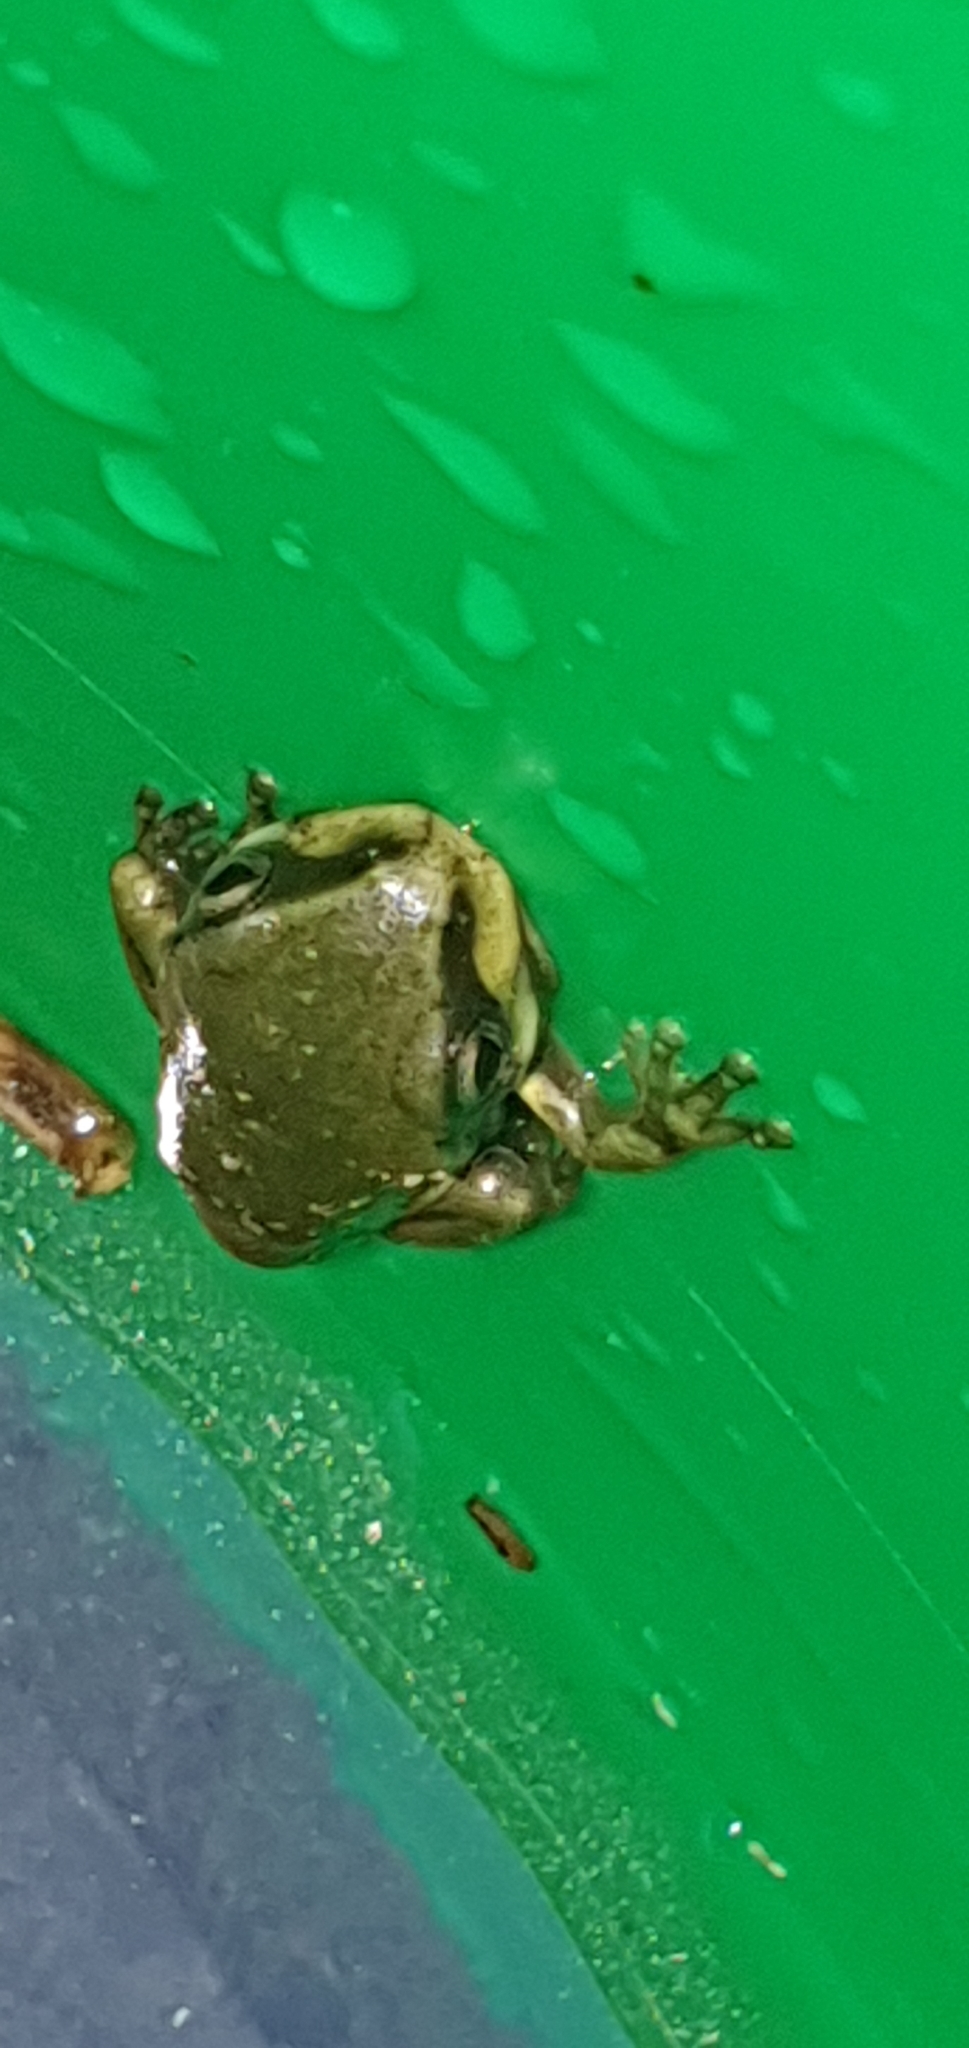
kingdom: Animalia
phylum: Chordata
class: Amphibia
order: Anura
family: Pelodryadidae
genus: Ranoidea
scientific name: Ranoidea caerulea
